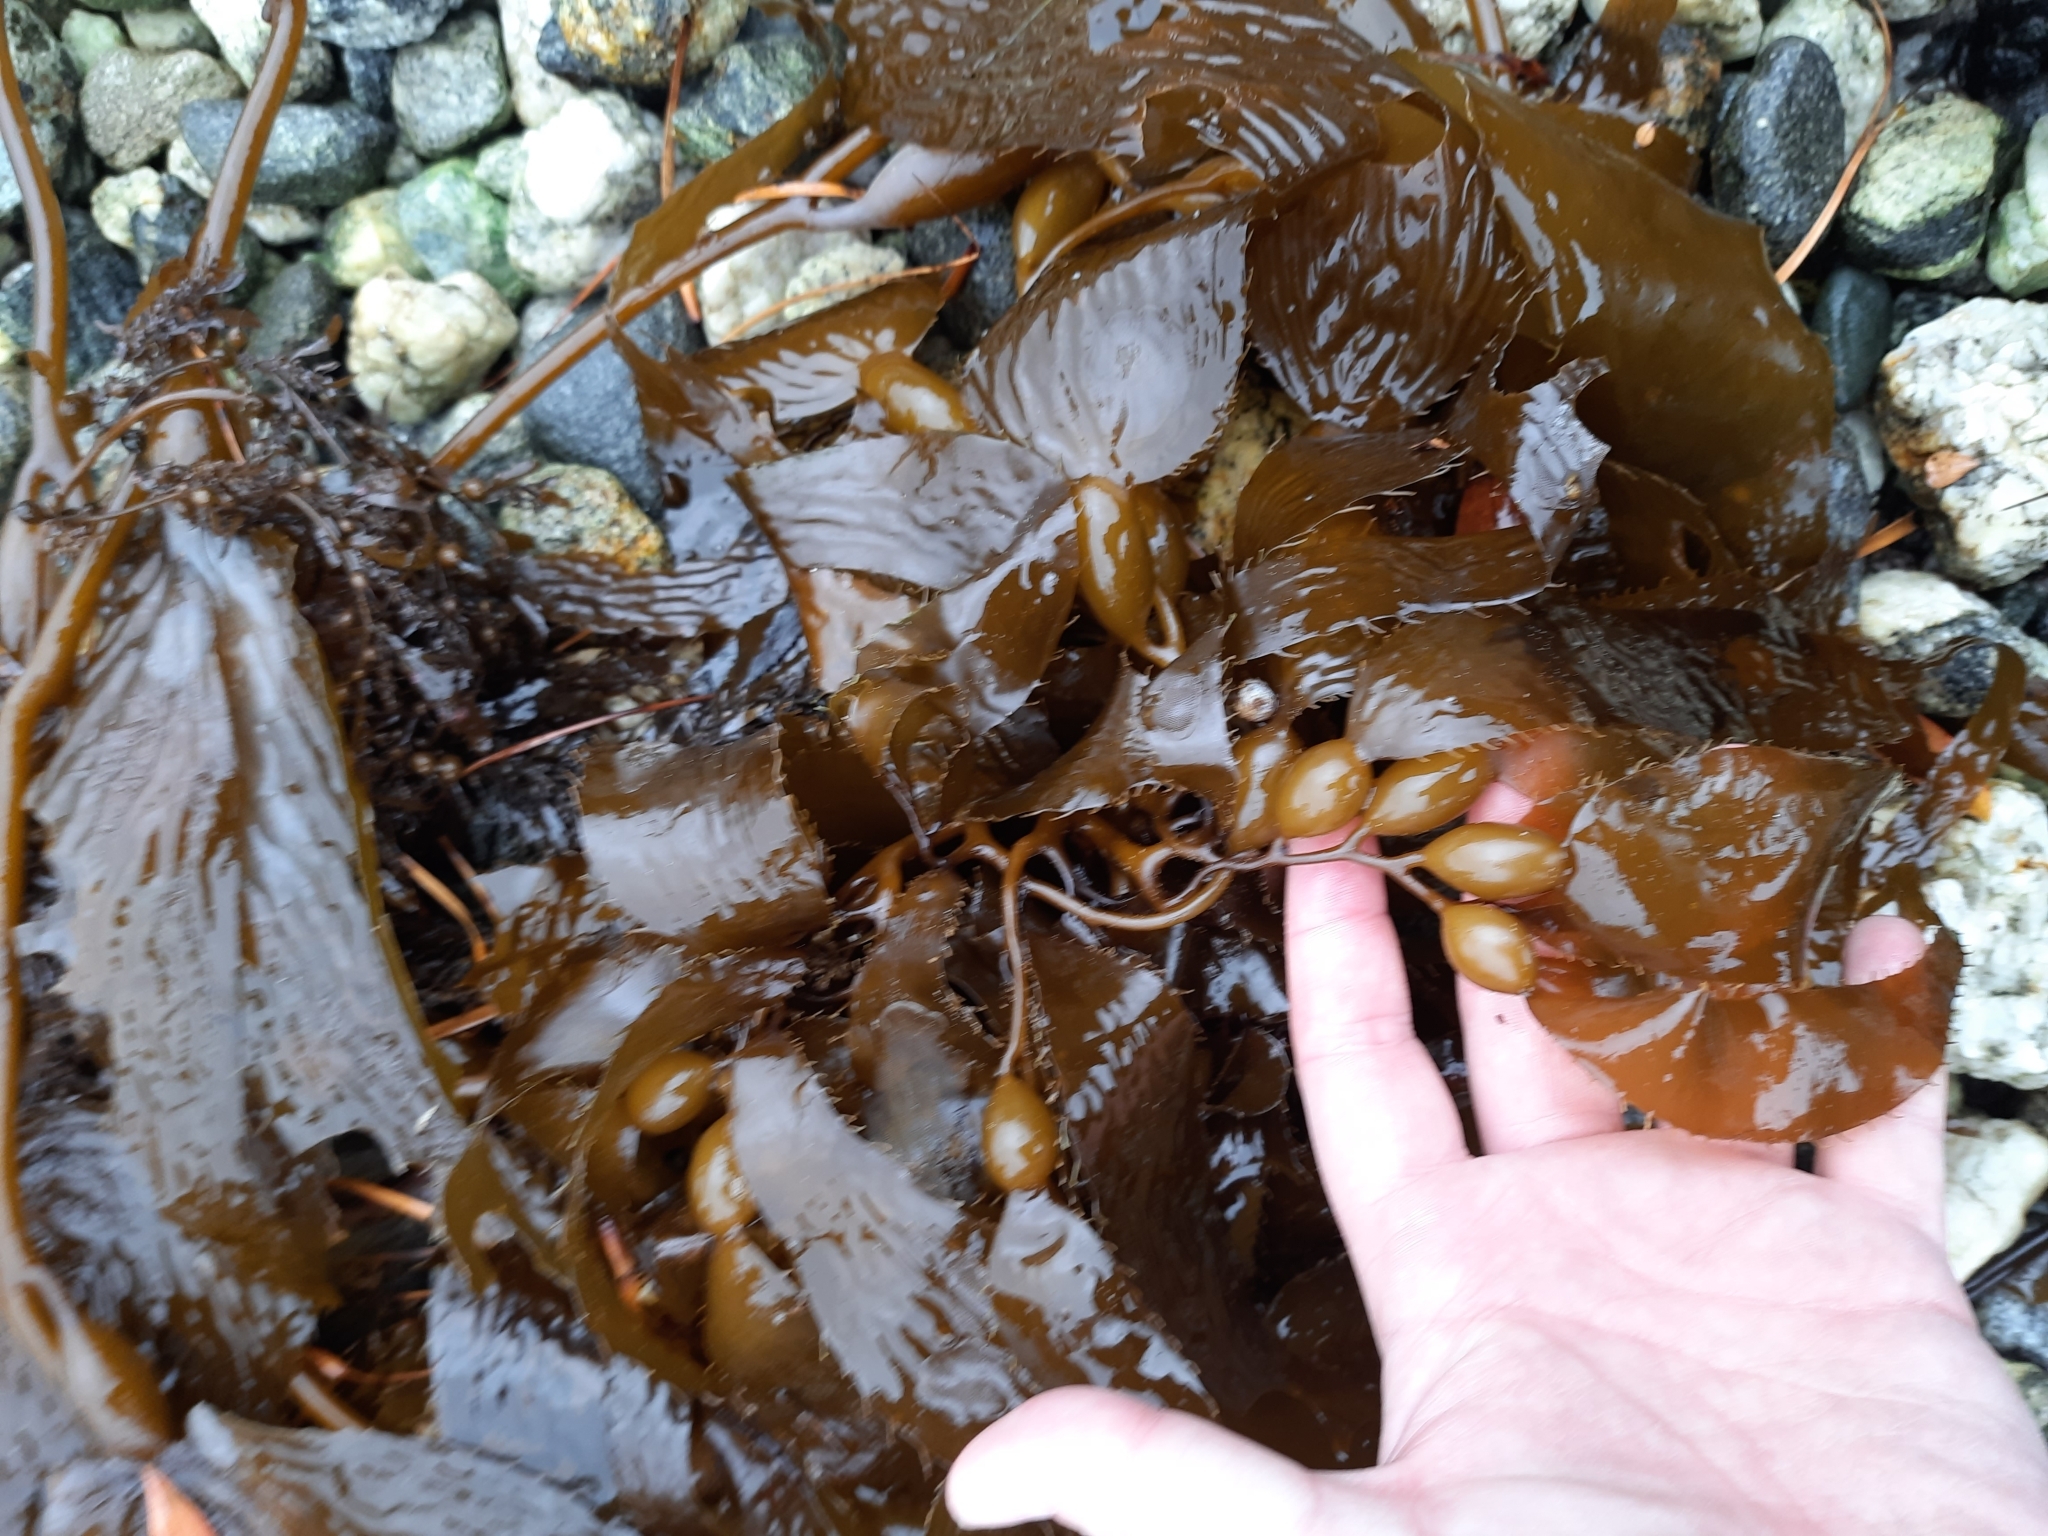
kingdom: Chromista
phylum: Ochrophyta
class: Phaeophyceae
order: Laminariales
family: Laminariaceae
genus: Macrocystis
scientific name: Macrocystis pyrifera
